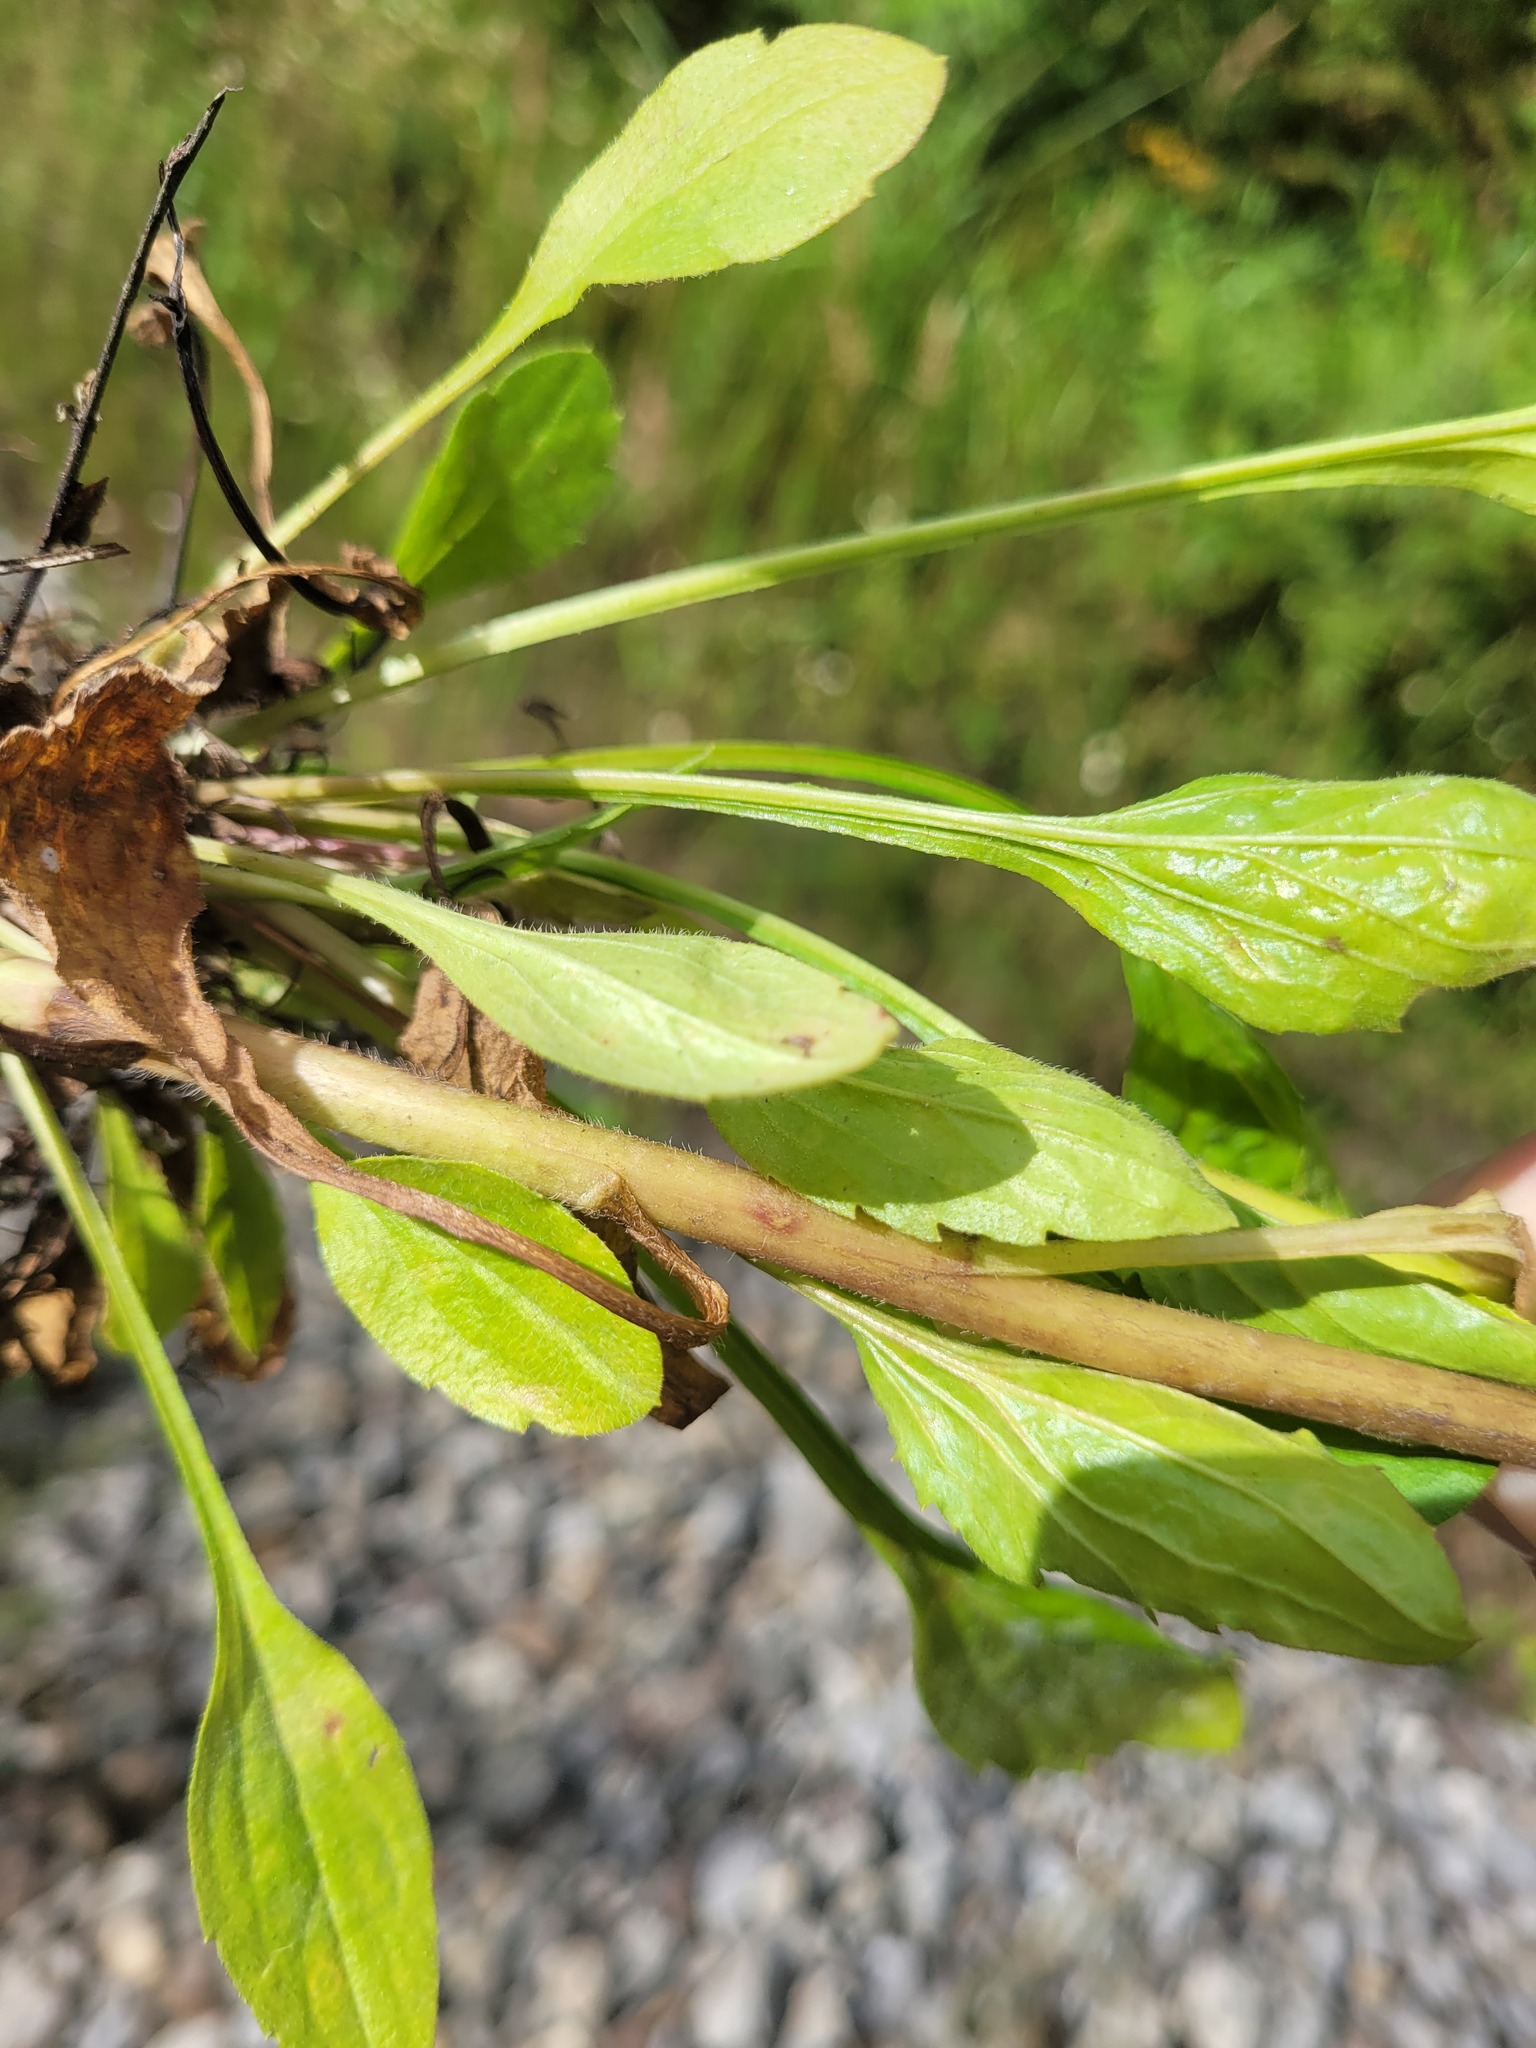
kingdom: Plantae
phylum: Tracheophyta
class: Magnoliopsida
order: Asterales
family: Asteraceae
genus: Erigeron
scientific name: Erigeron annuus
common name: Tall fleabane
